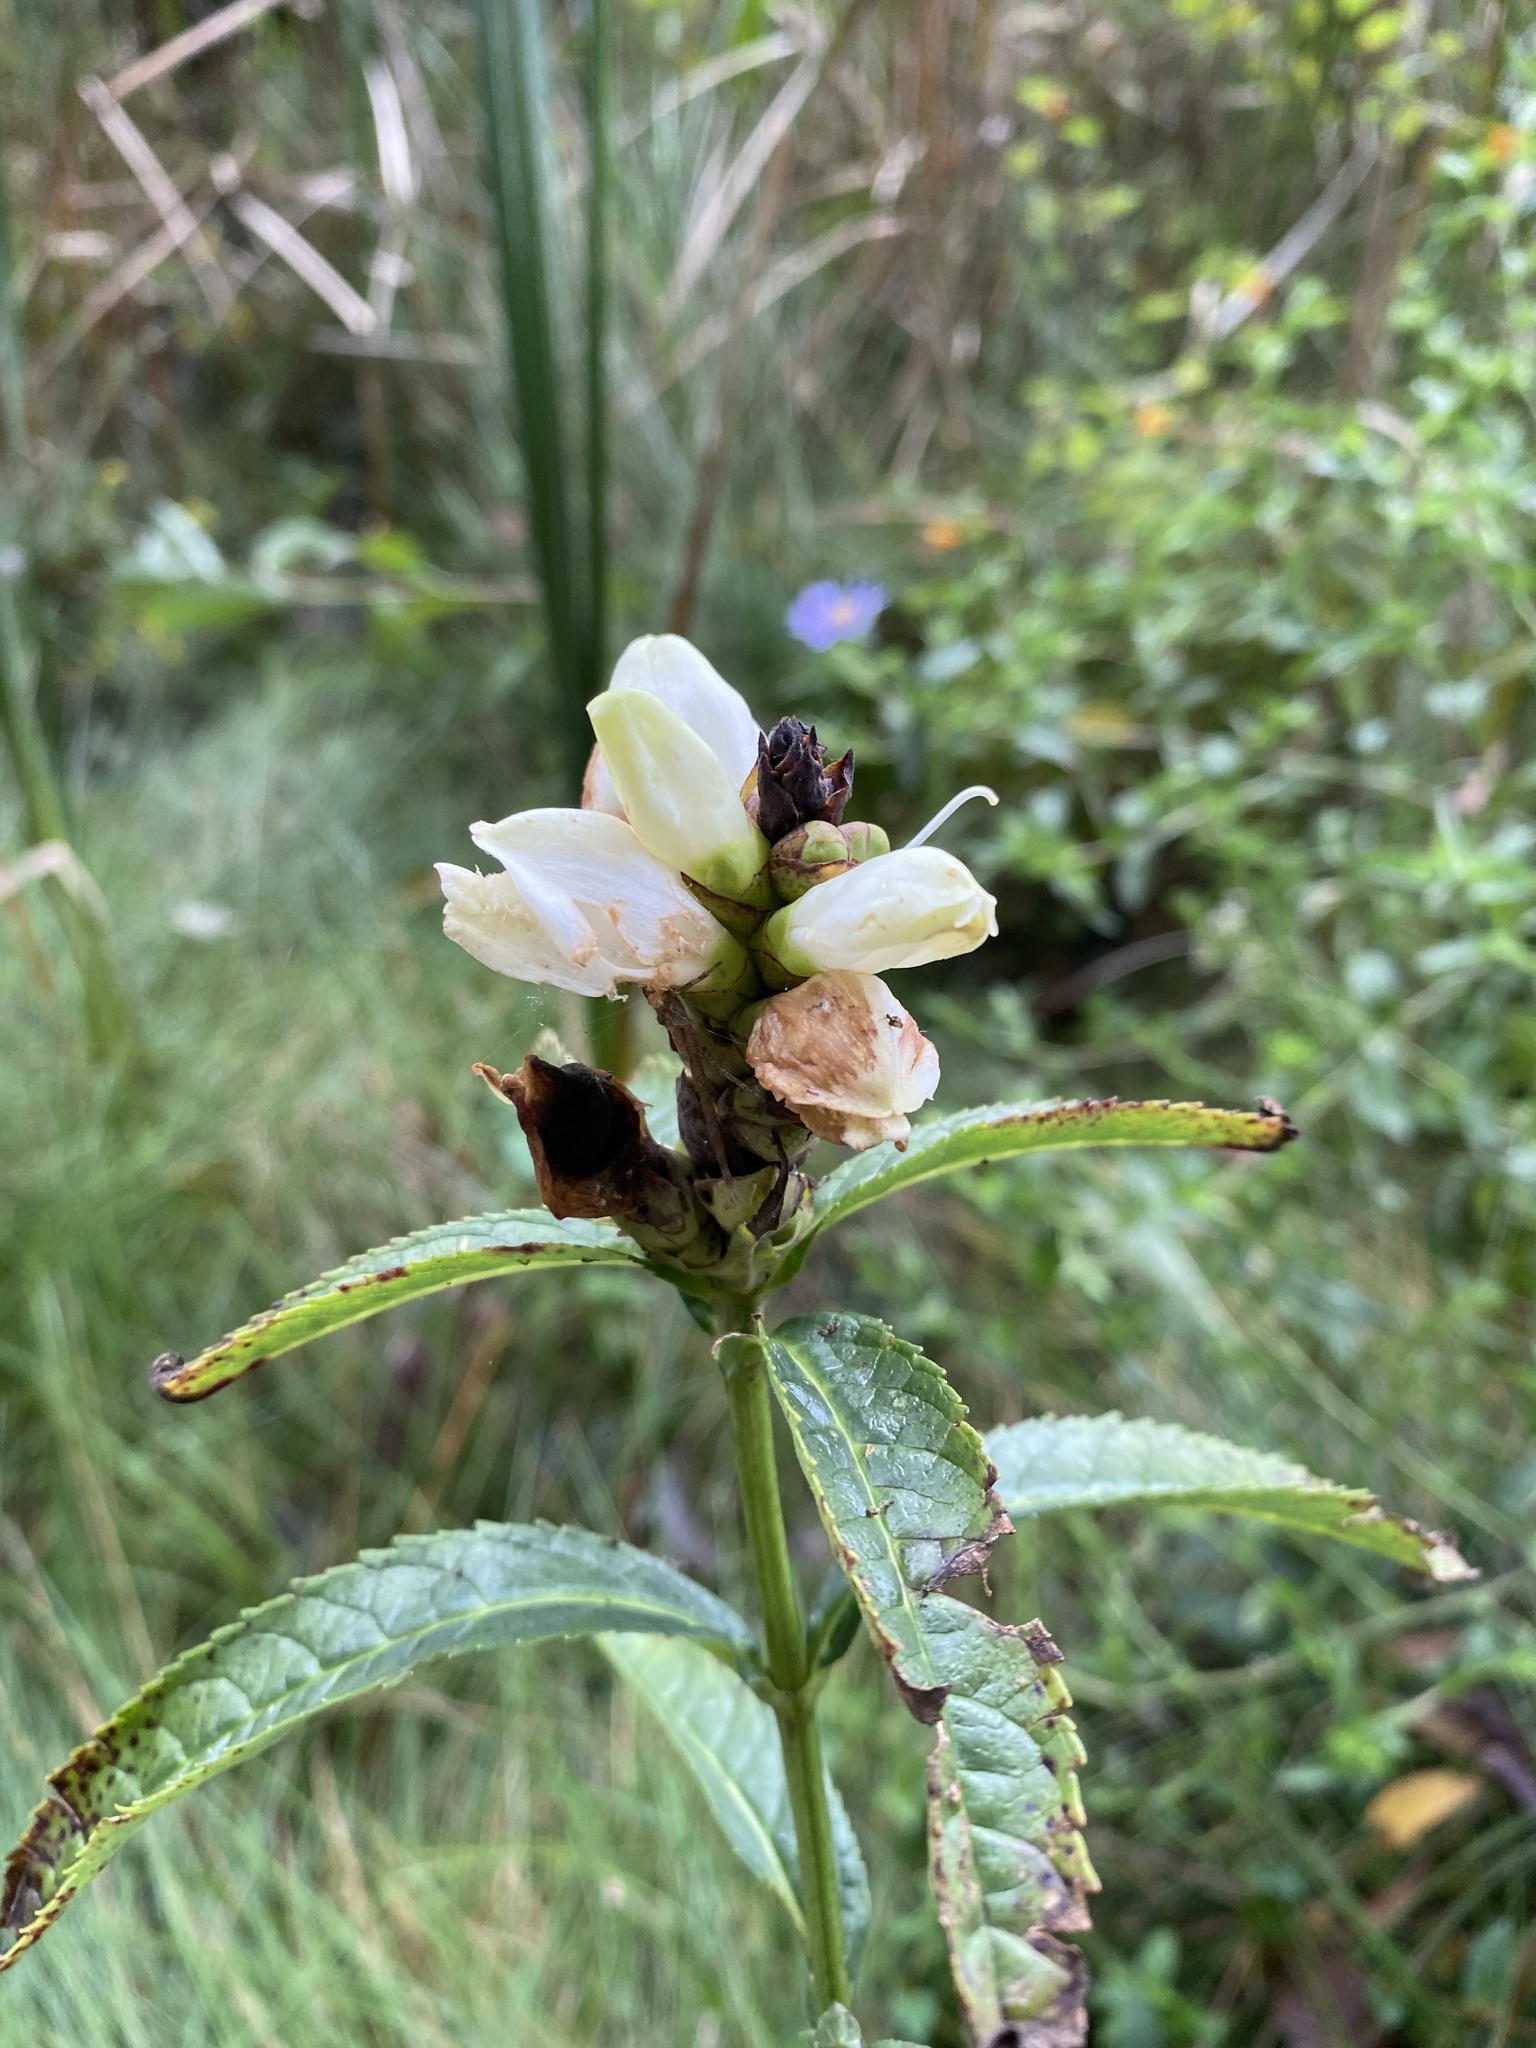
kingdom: Plantae
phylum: Tracheophyta
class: Magnoliopsida
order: Lamiales
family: Plantaginaceae
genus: Chelone
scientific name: Chelone glabra
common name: Snakehead
